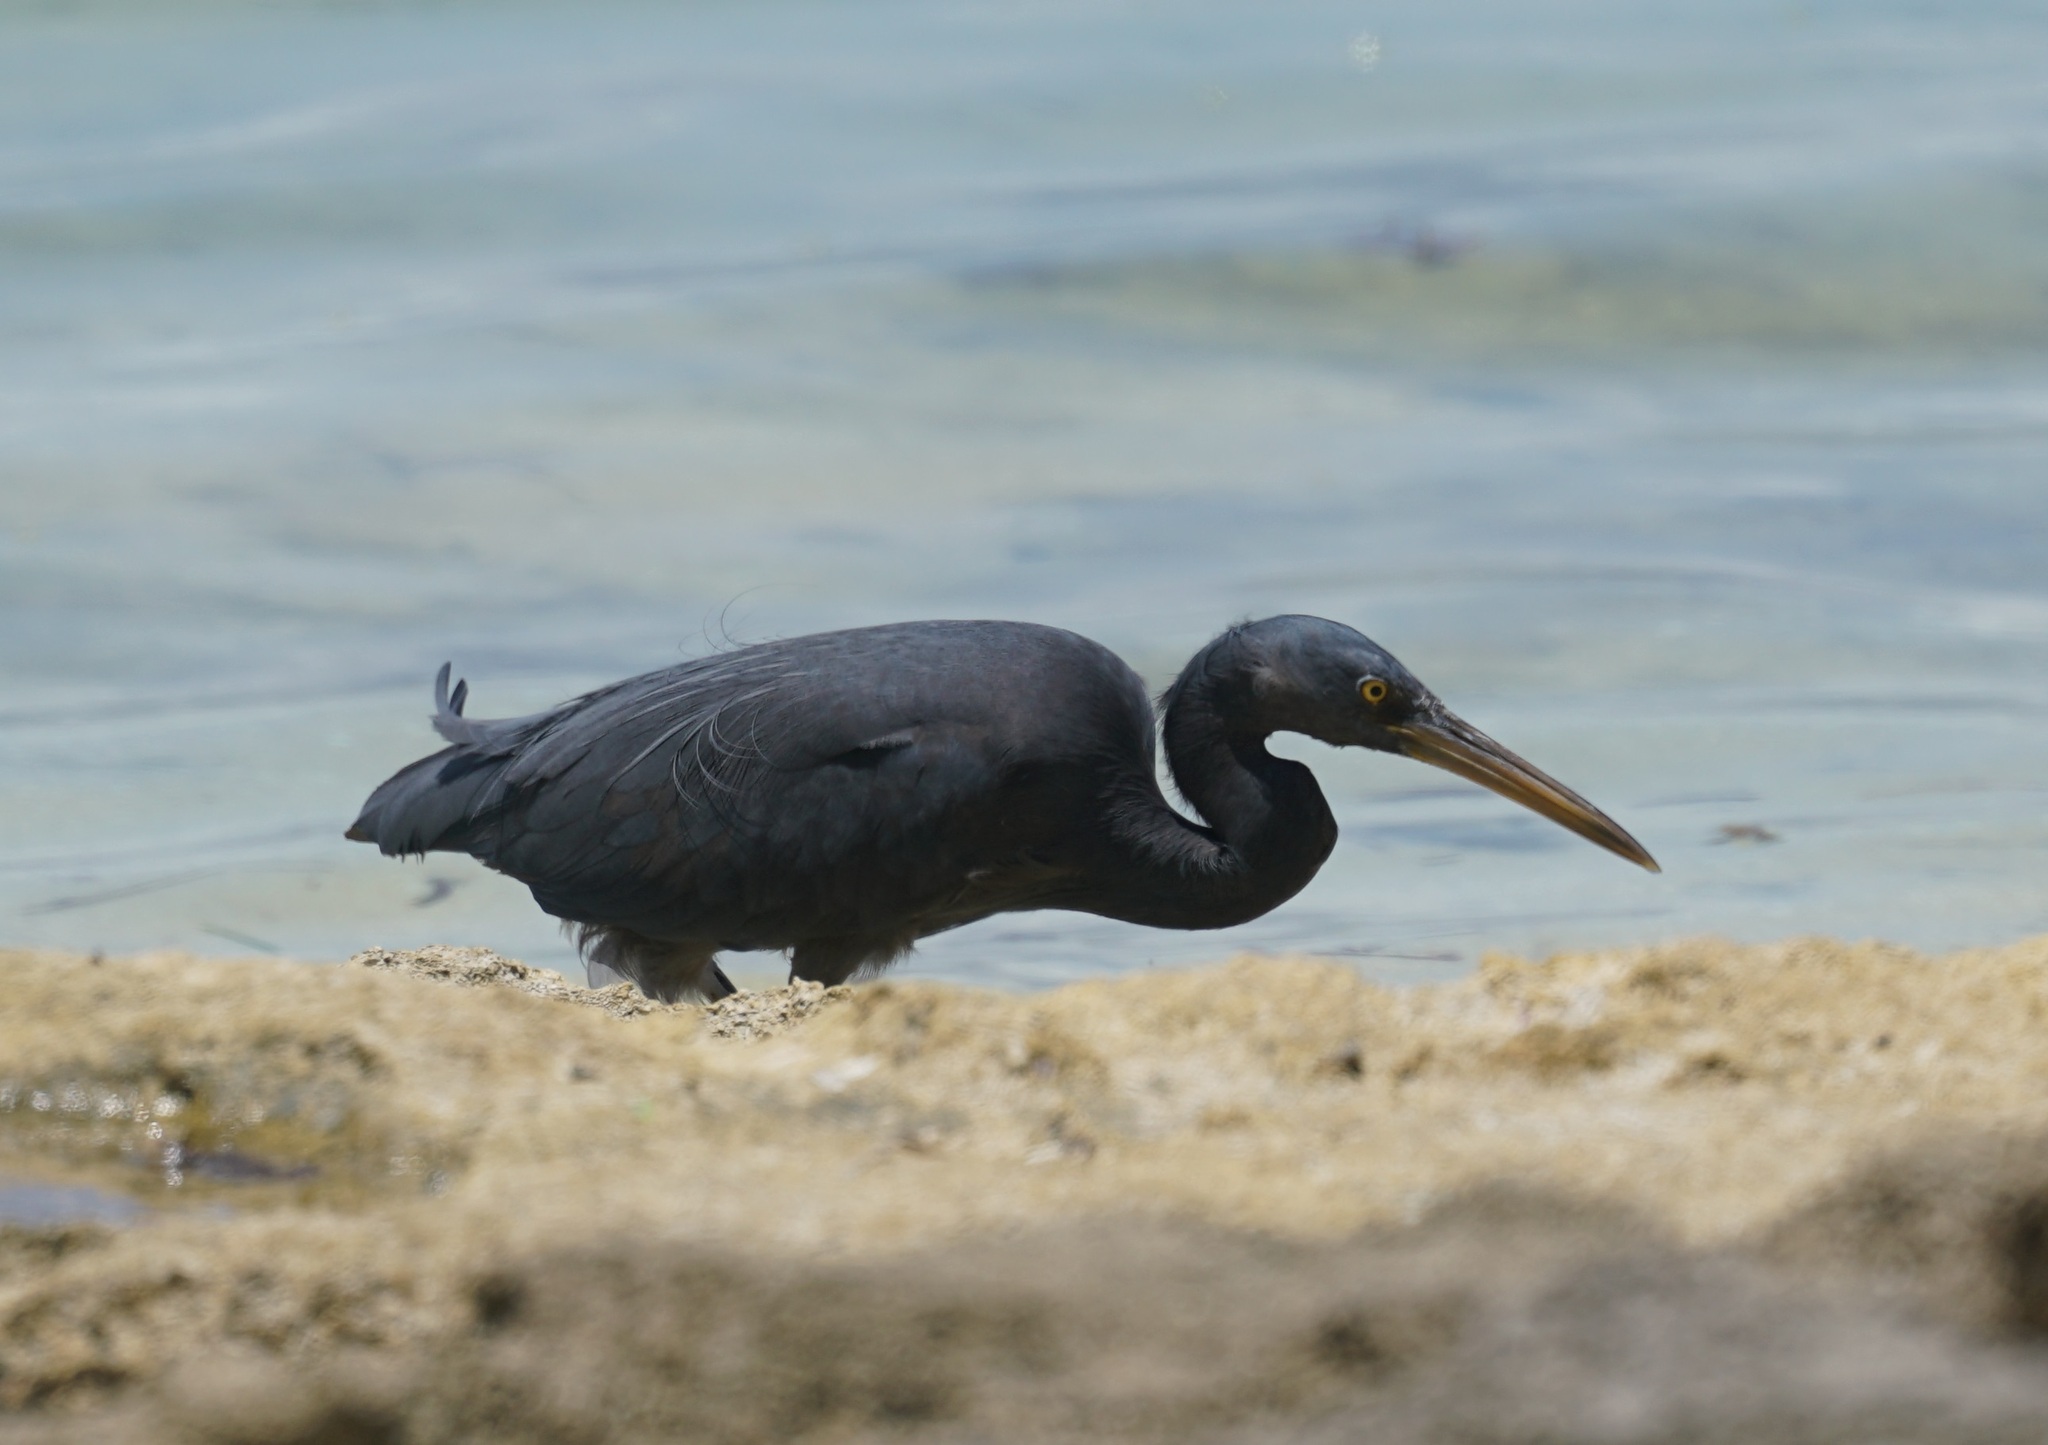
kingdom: Animalia
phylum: Chordata
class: Aves
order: Pelecaniformes
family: Ardeidae
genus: Egretta
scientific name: Egretta sacra
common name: Pacific reef heron
